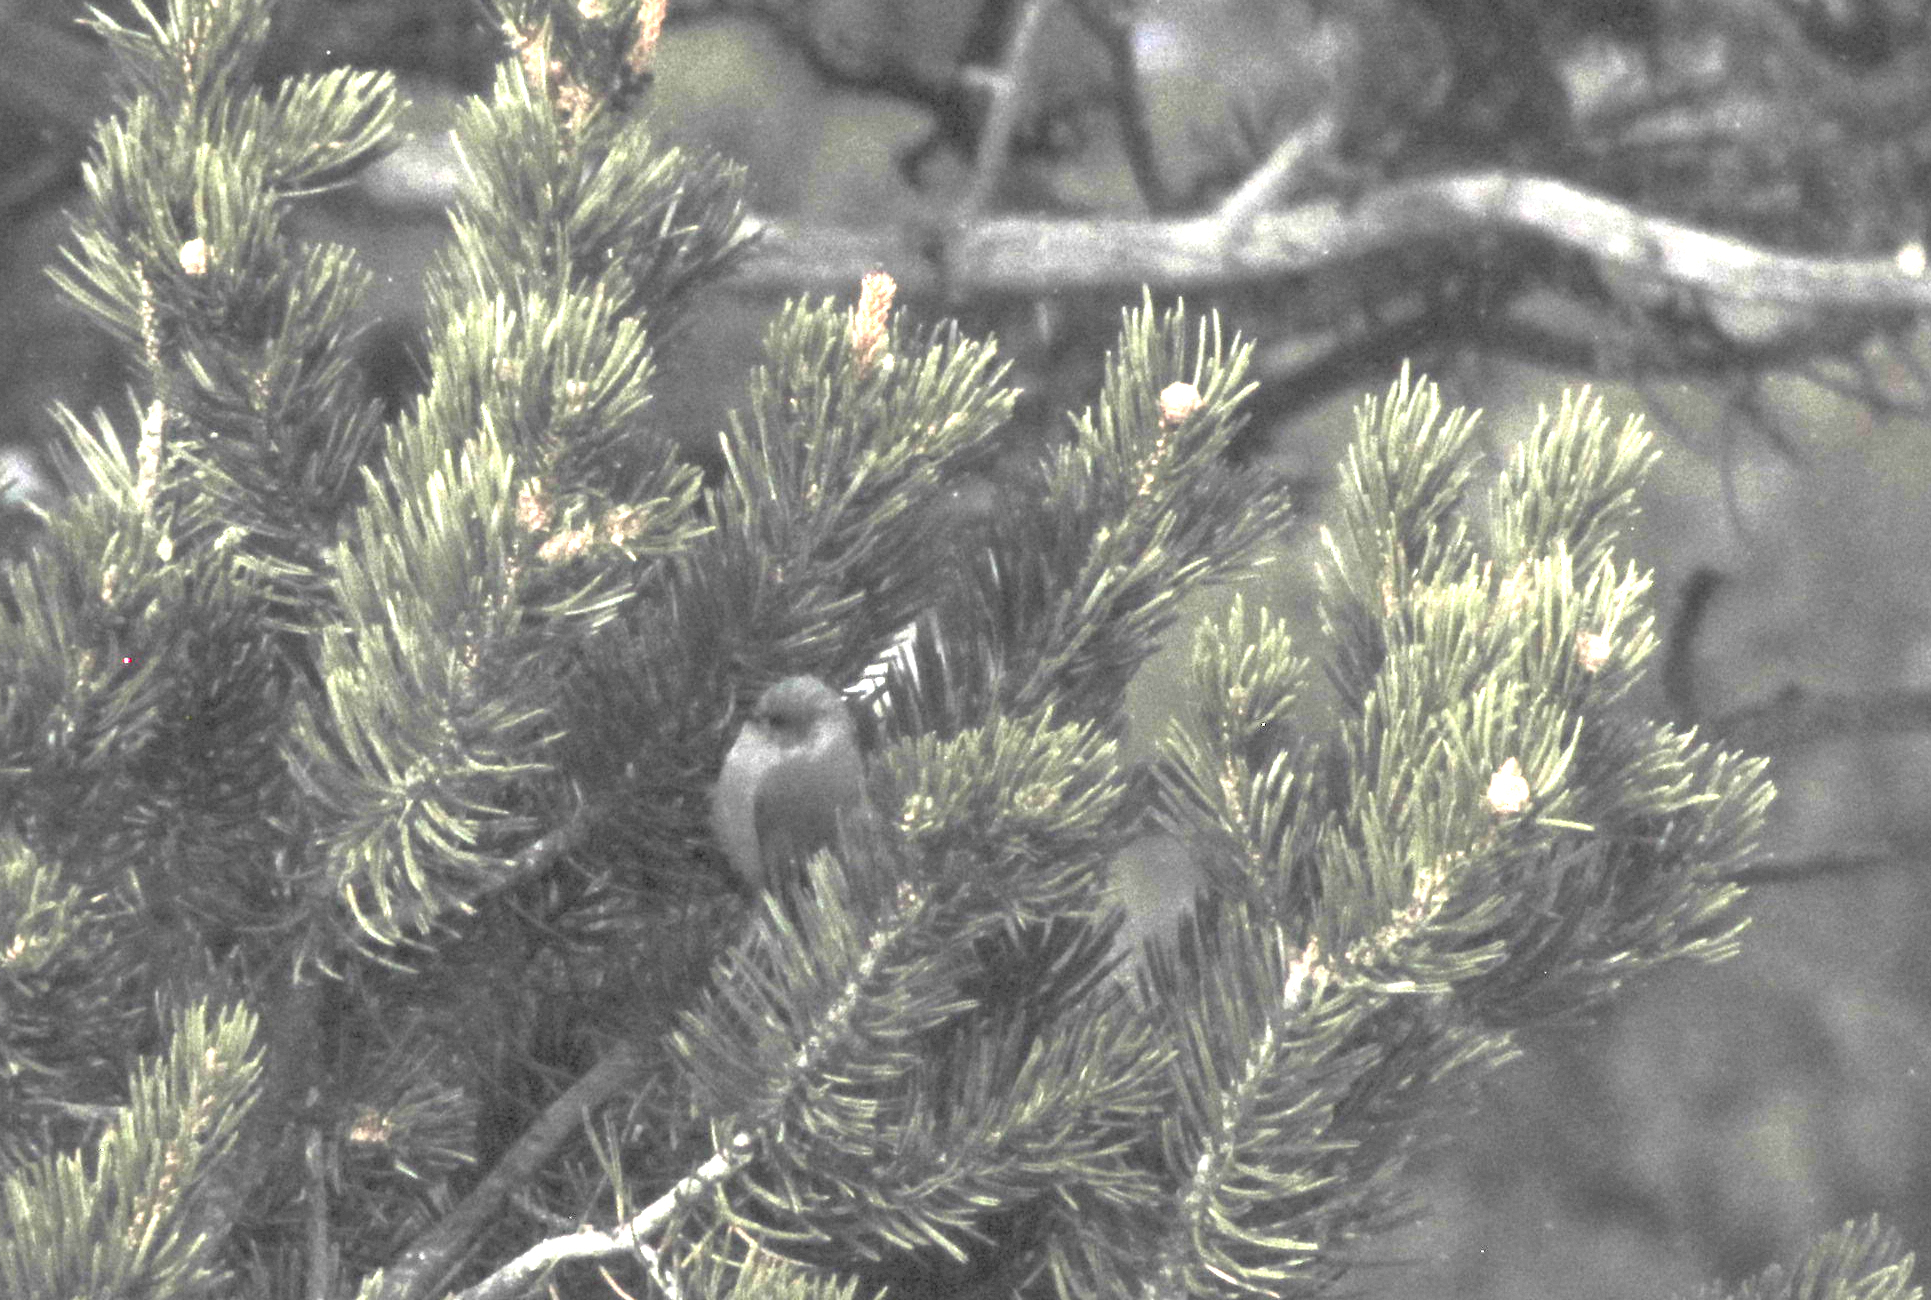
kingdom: Animalia
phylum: Chordata
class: Aves
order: Passeriformes
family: Aegithalidae
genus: Psaltriparus
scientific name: Psaltriparus minimus
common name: American bushtit
